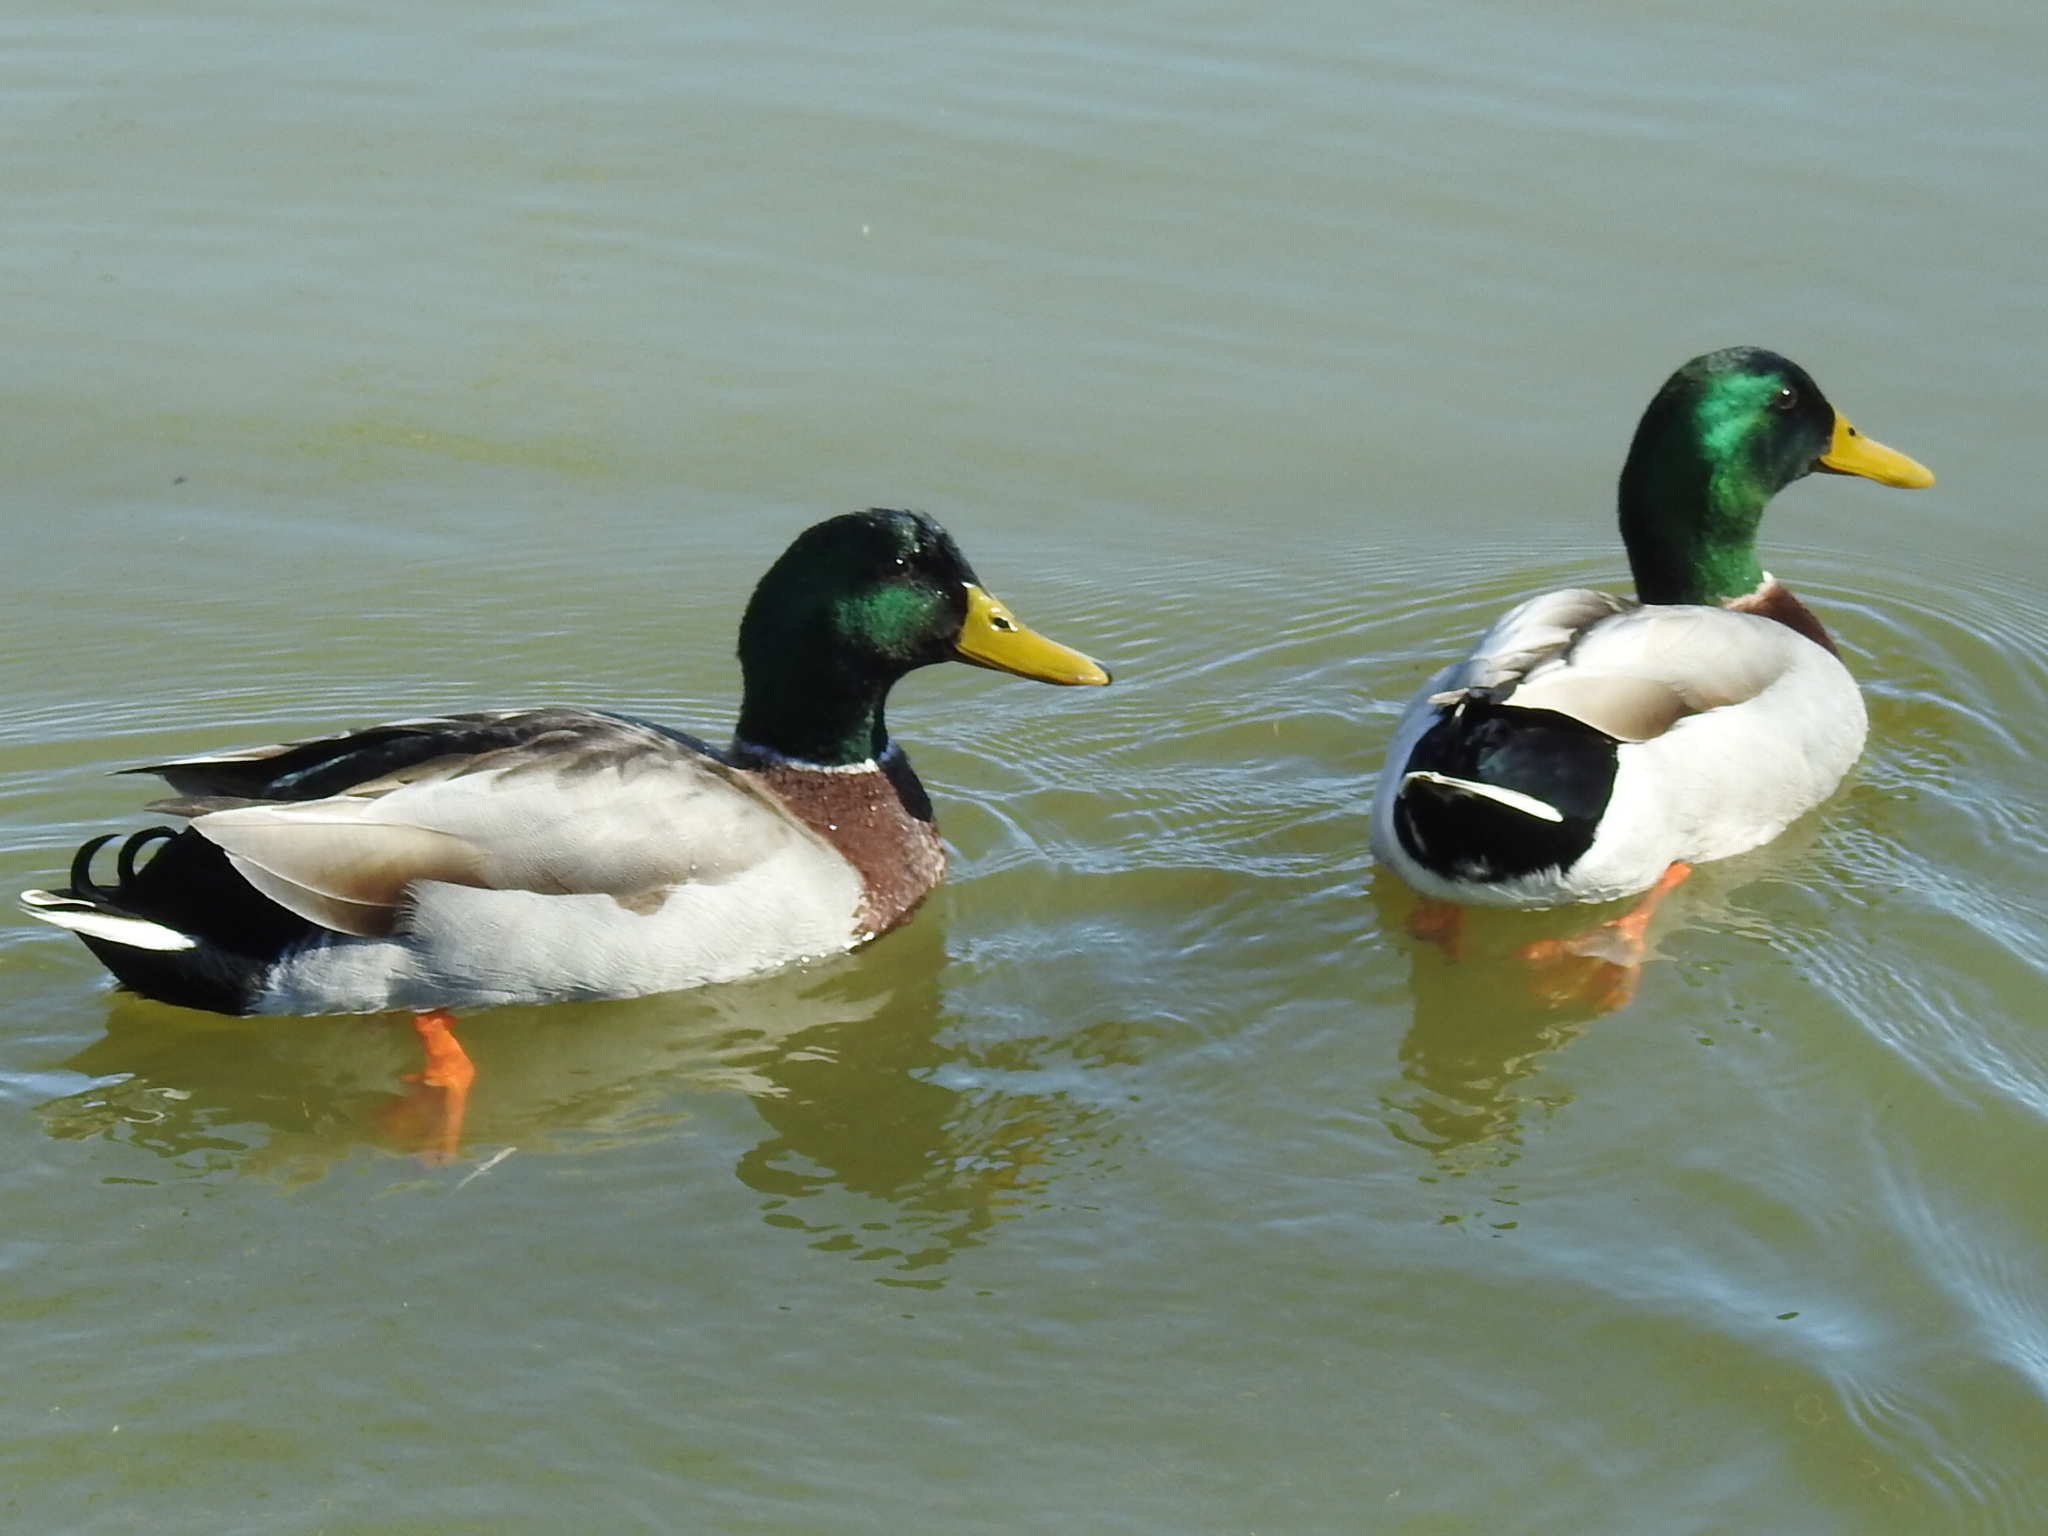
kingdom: Animalia
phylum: Chordata
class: Aves
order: Anseriformes
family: Anatidae
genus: Anas
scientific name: Anas platyrhynchos
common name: Mallard
